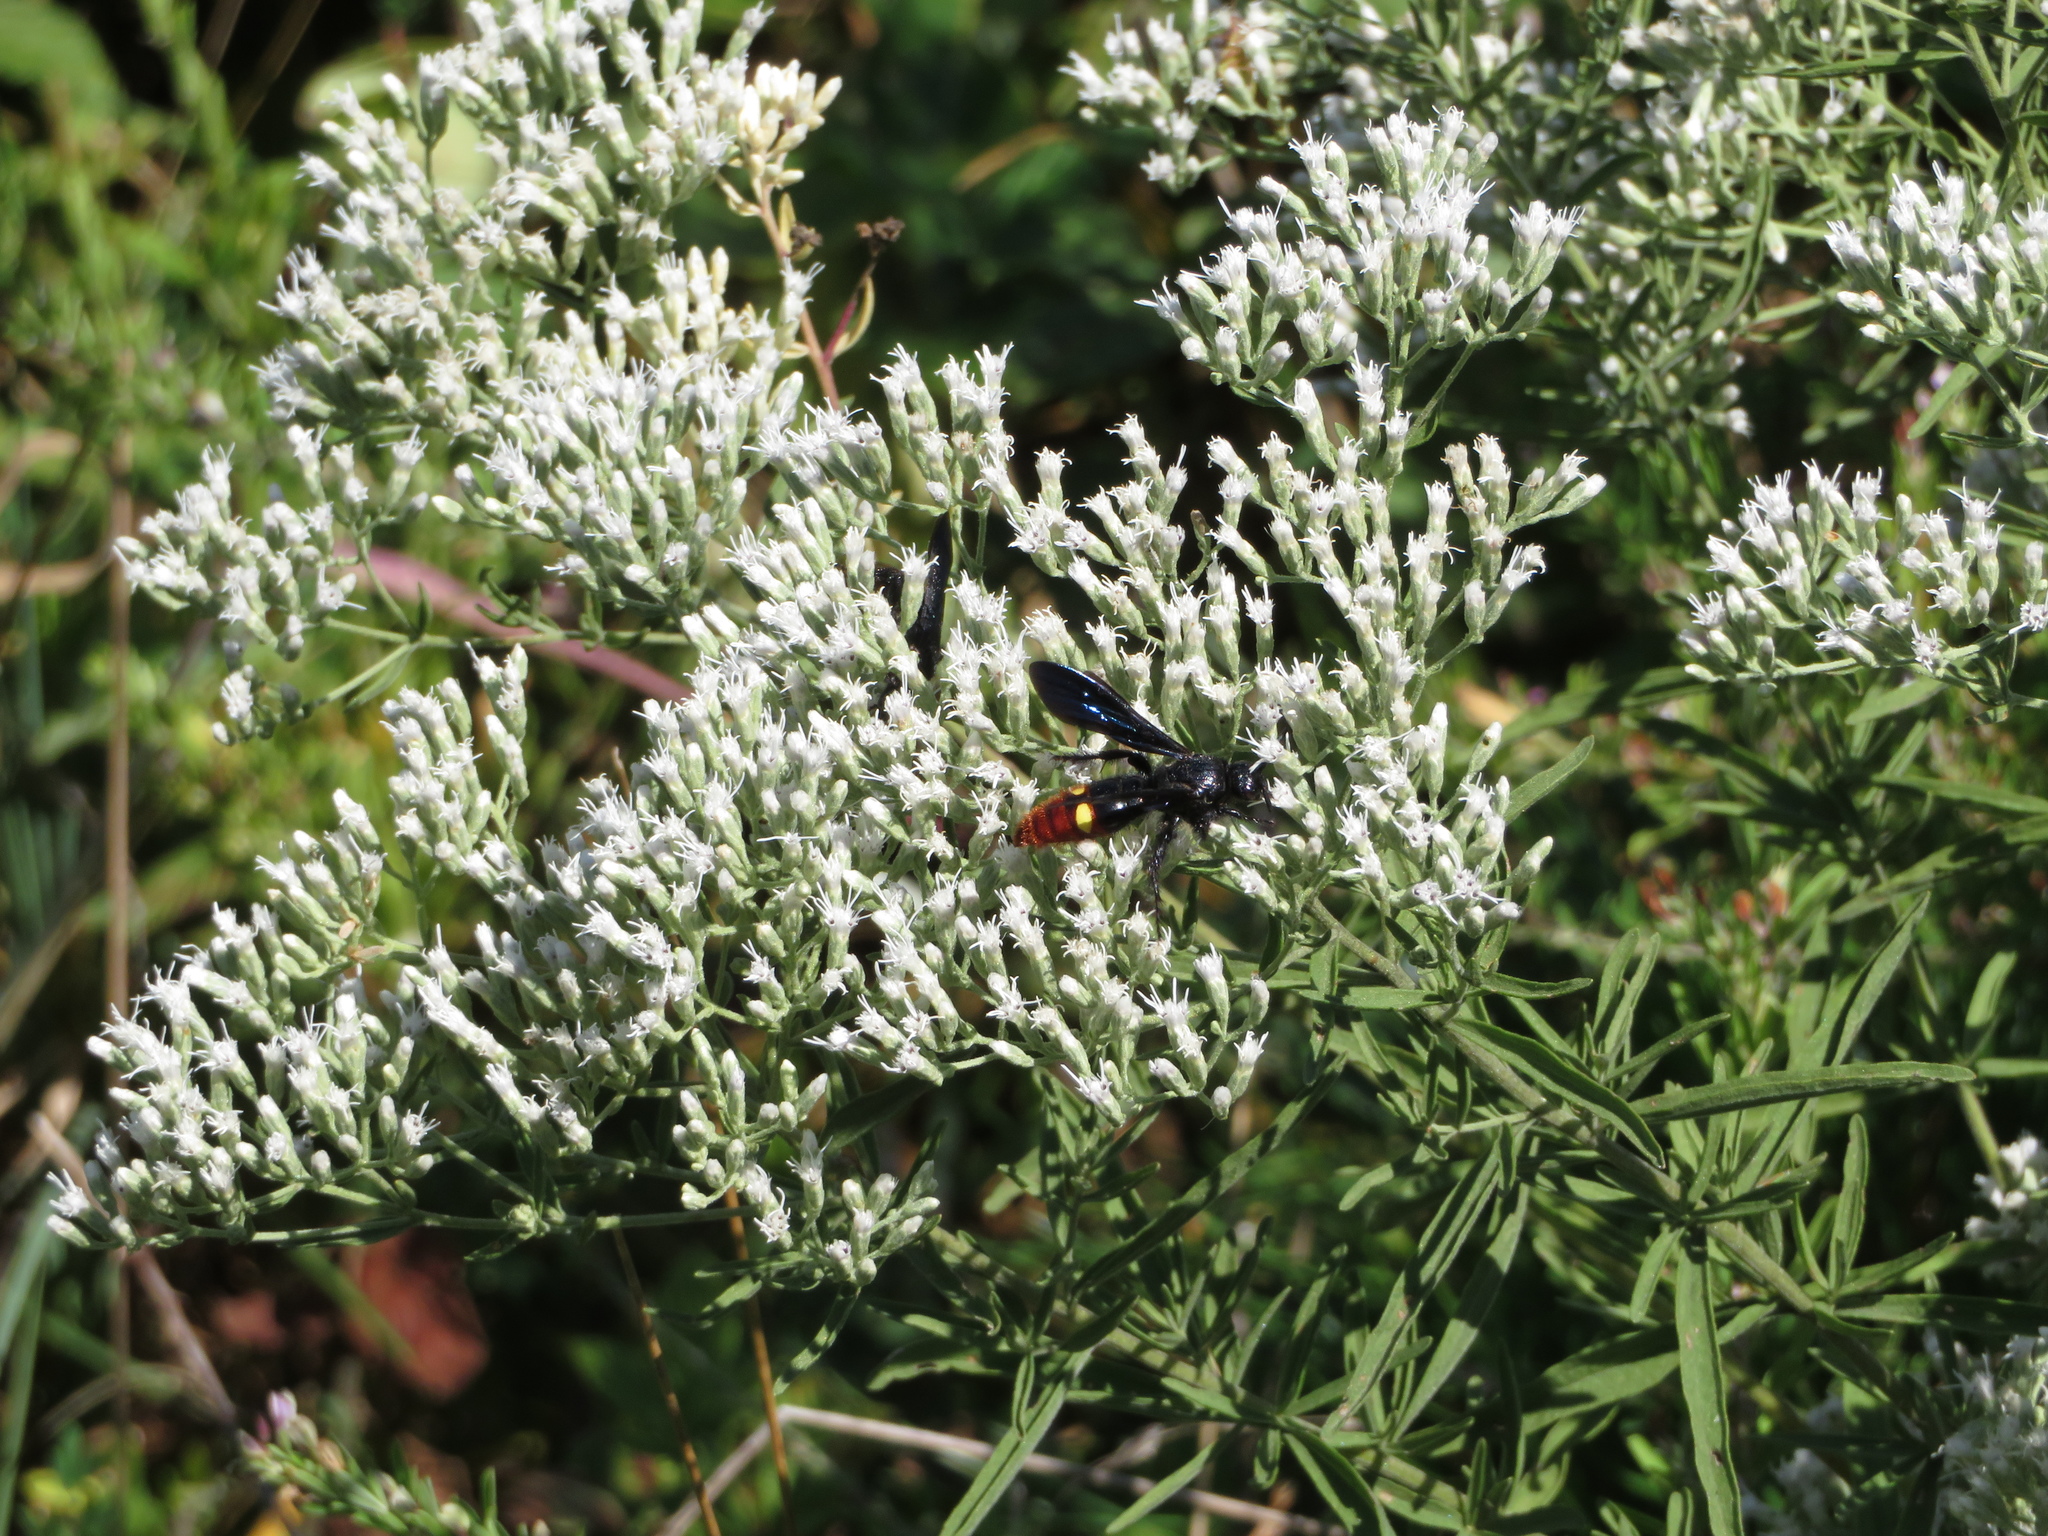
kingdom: Animalia
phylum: Arthropoda
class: Insecta
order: Hymenoptera
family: Scoliidae
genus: Scolia
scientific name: Scolia dubia
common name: Blue-winged scoliid wasp
